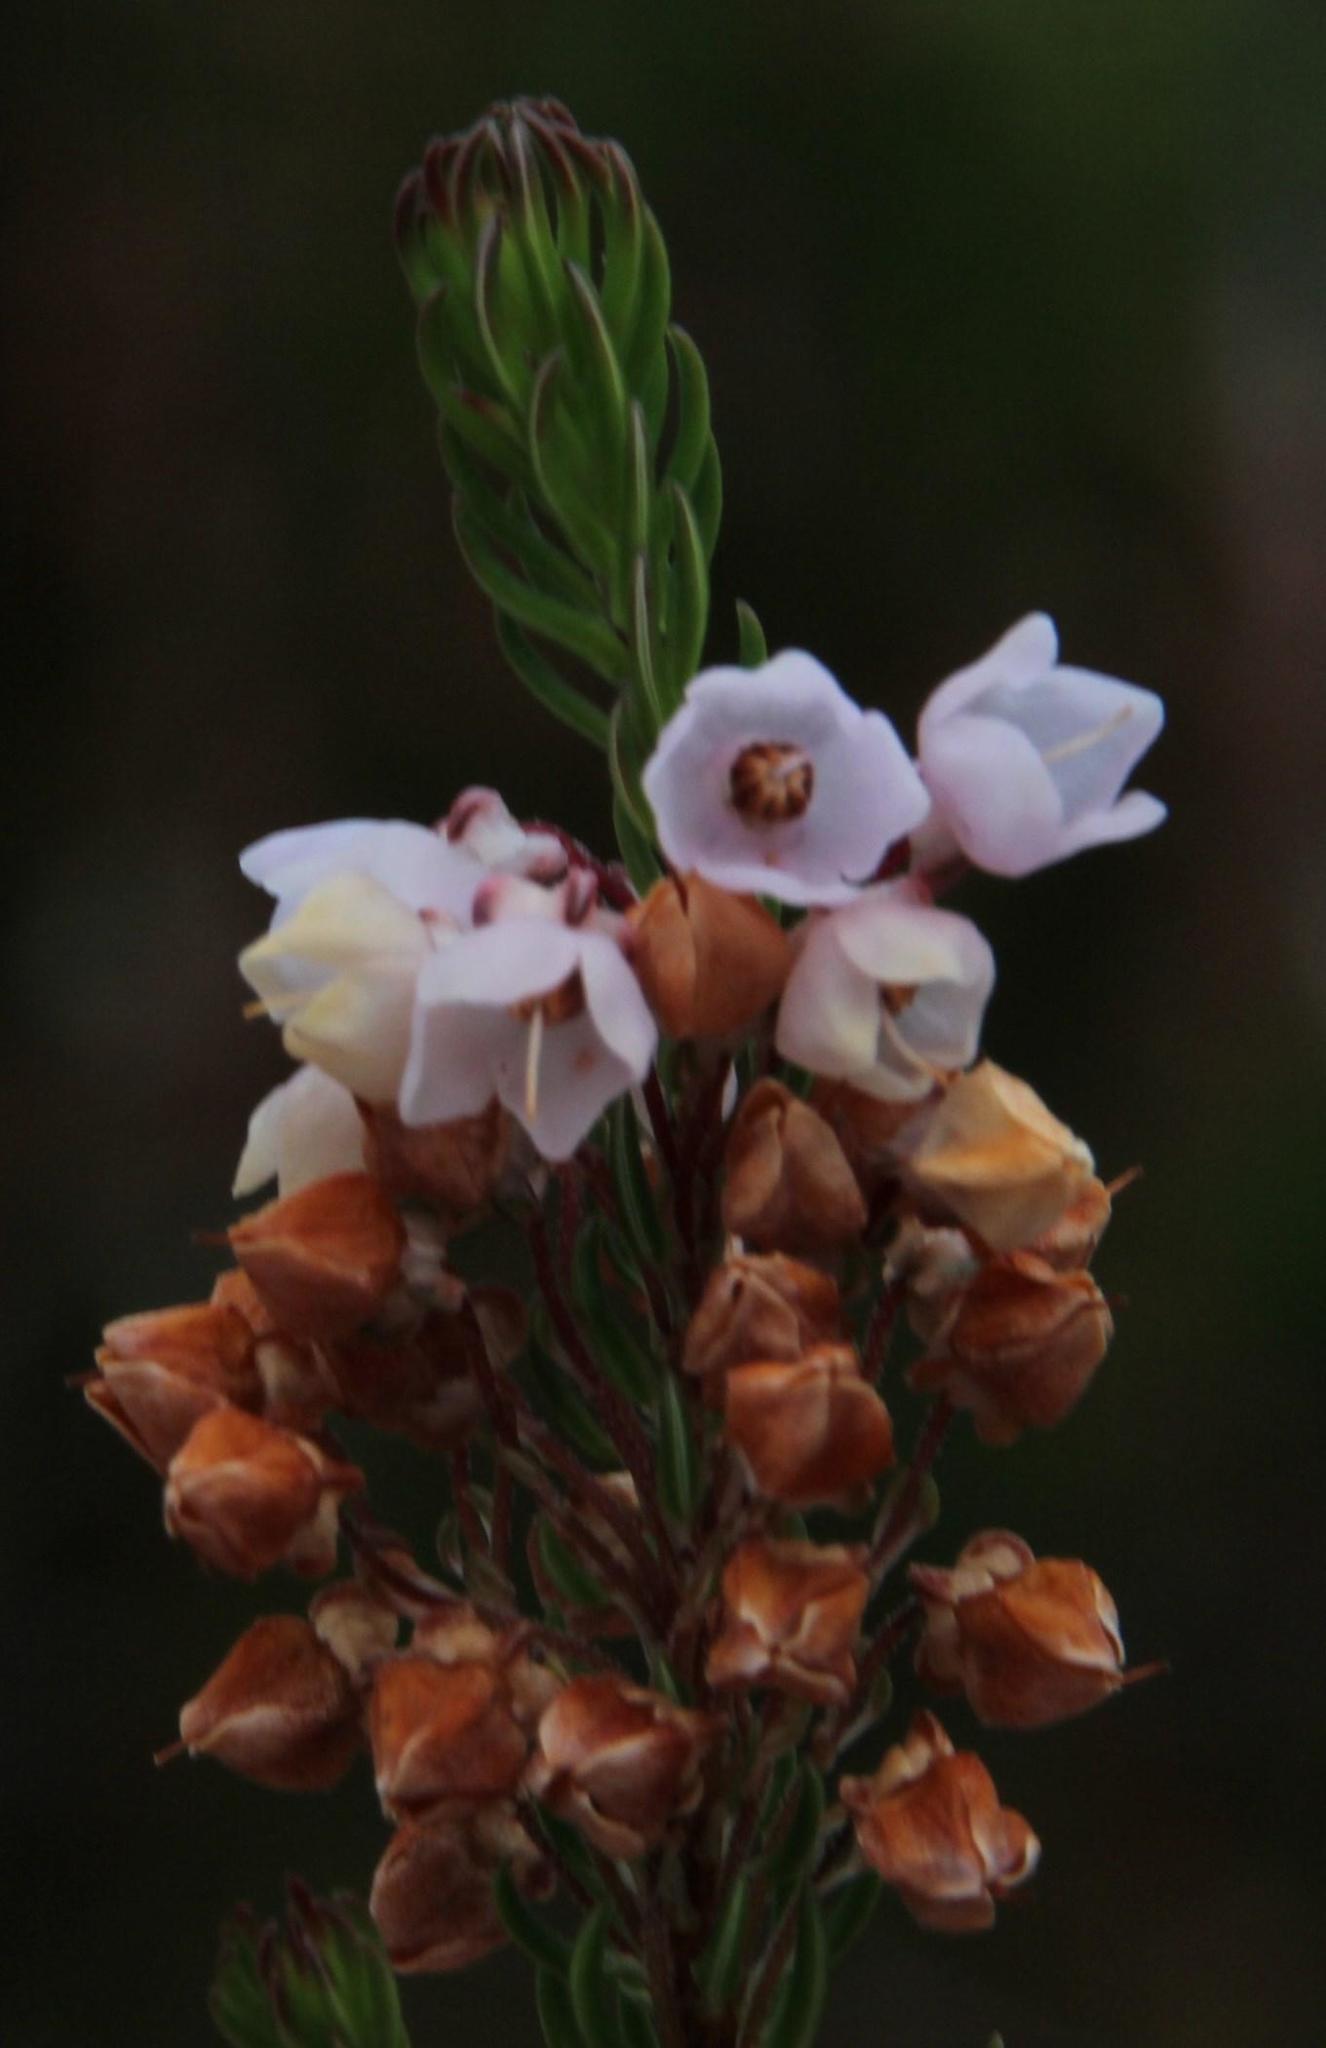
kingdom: Plantae
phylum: Tracheophyta
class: Magnoliopsida
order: Ericales
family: Ericaceae
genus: Erica
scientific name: Erica seriphiifolia
